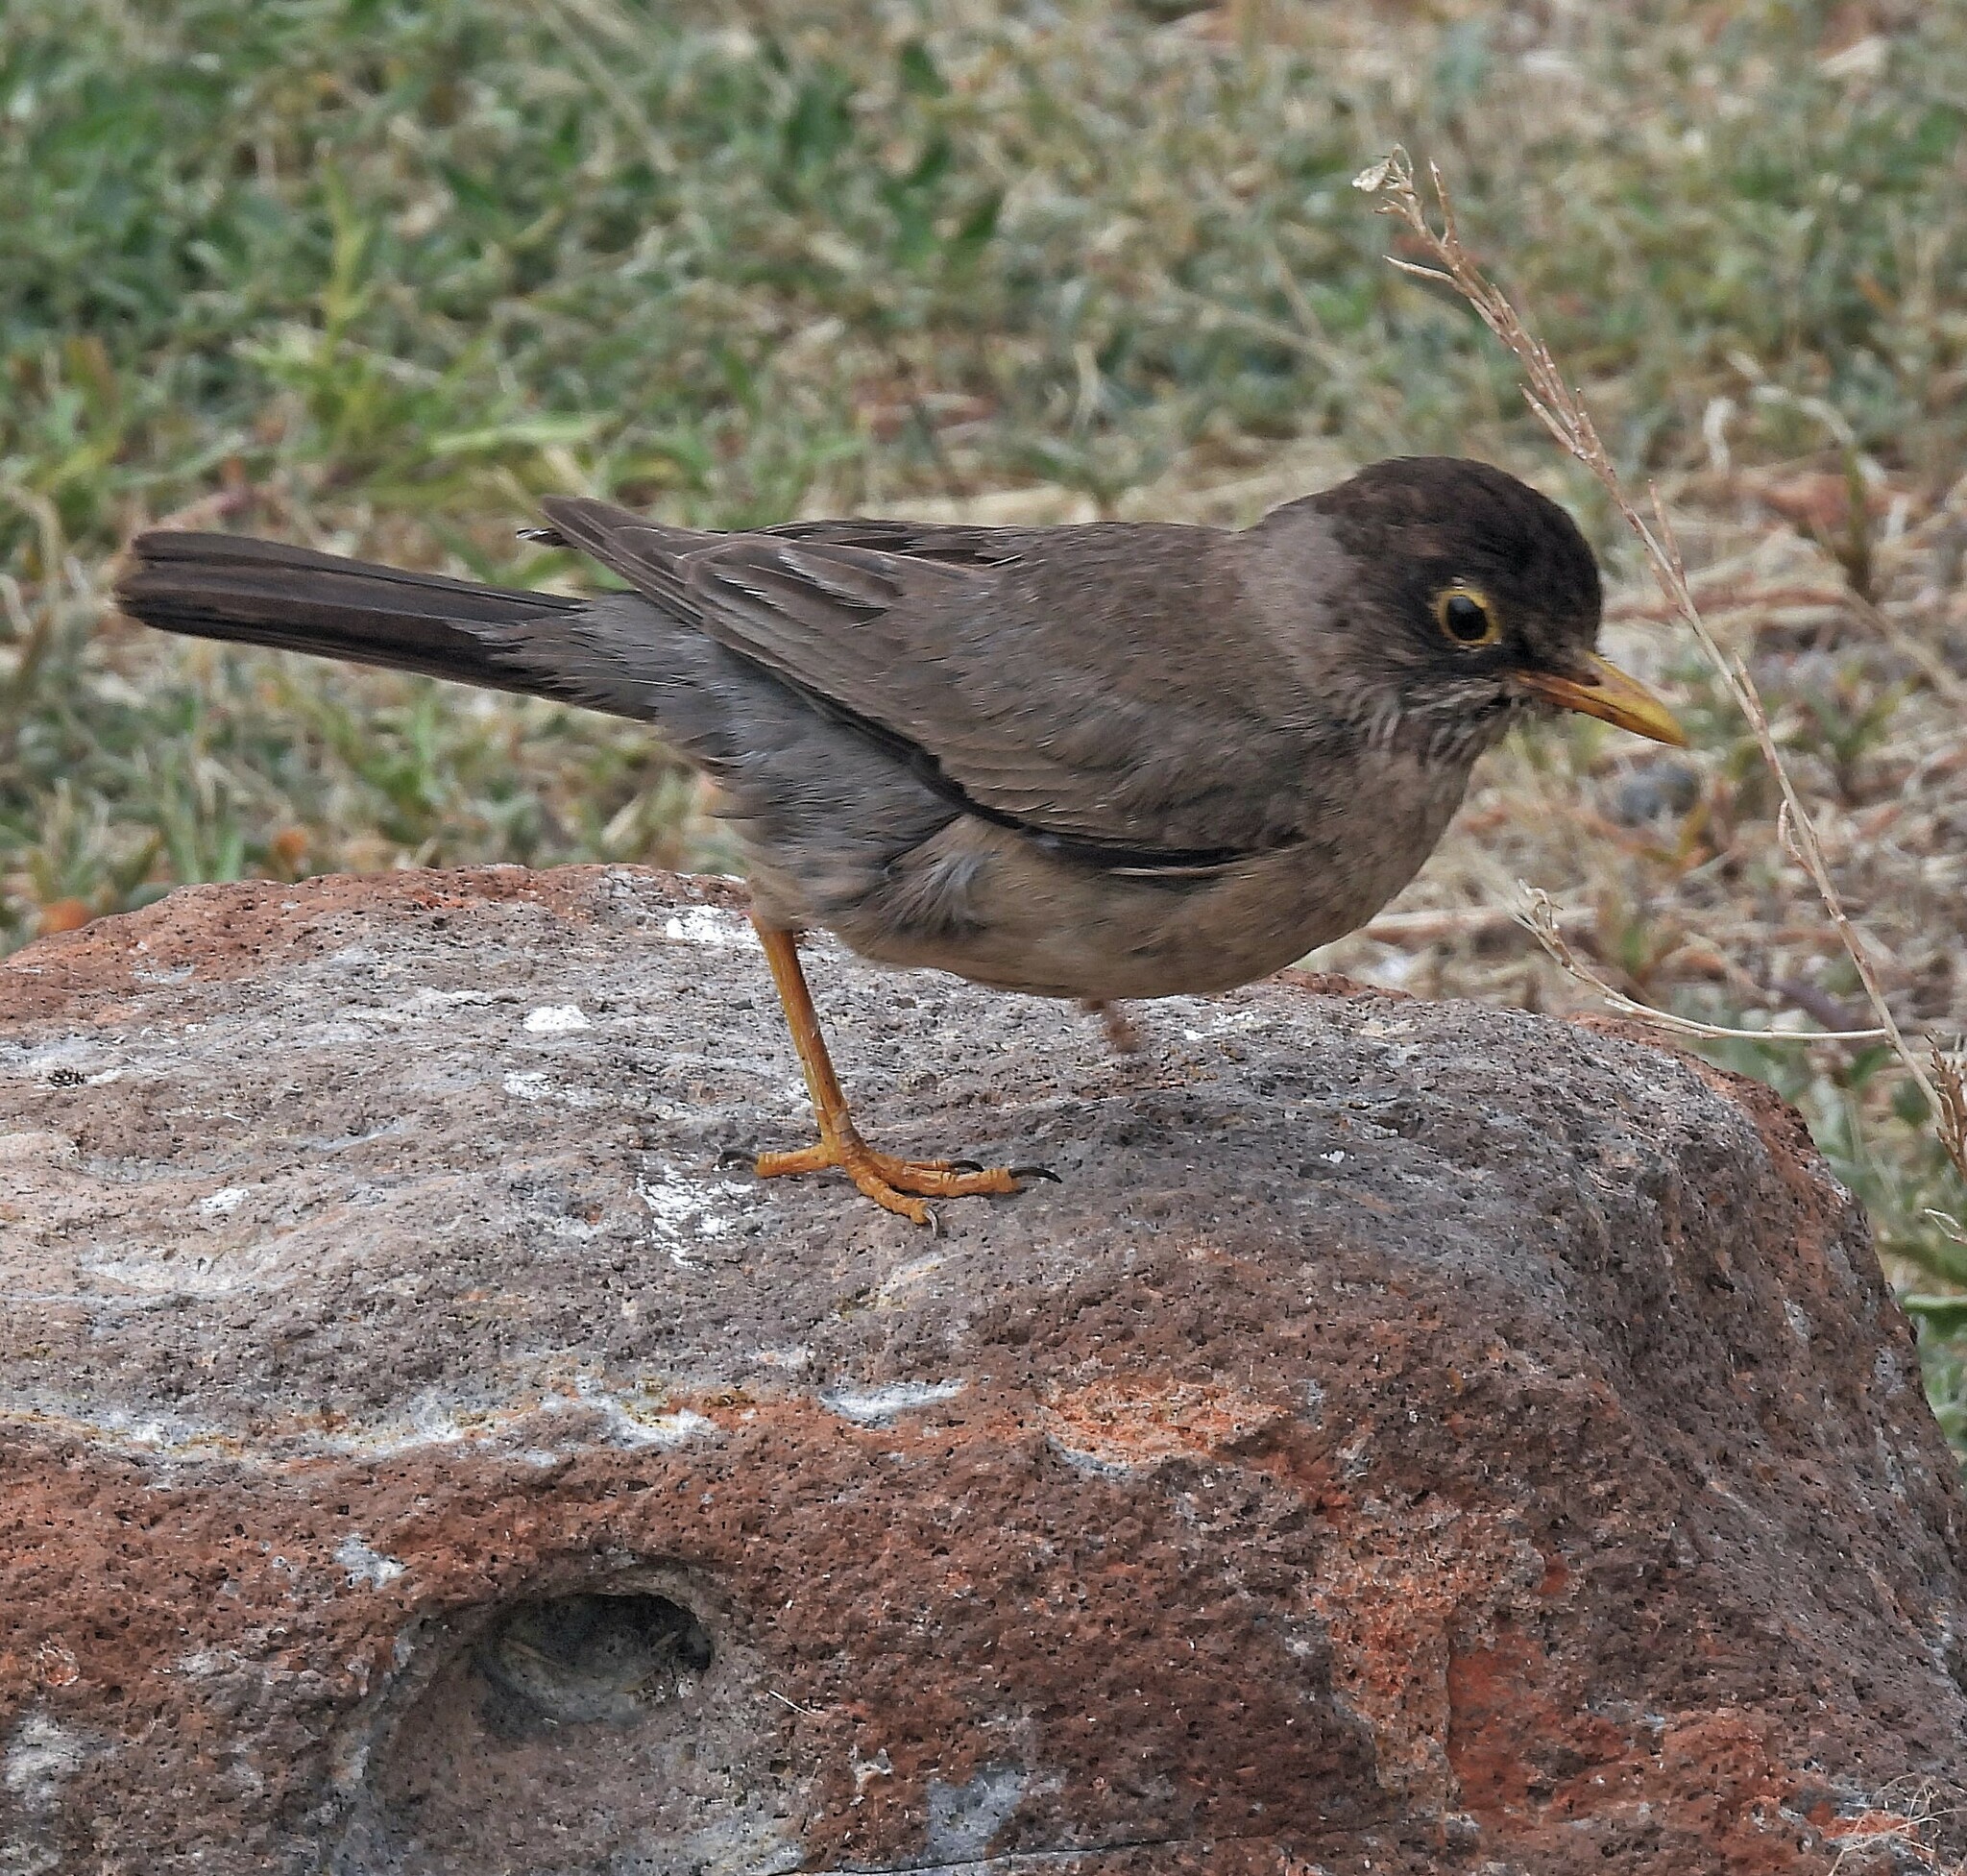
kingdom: Animalia
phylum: Chordata
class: Aves
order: Passeriformes
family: Turdidae
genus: Turdus
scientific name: Turdus falcklandii
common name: Austral thrush
